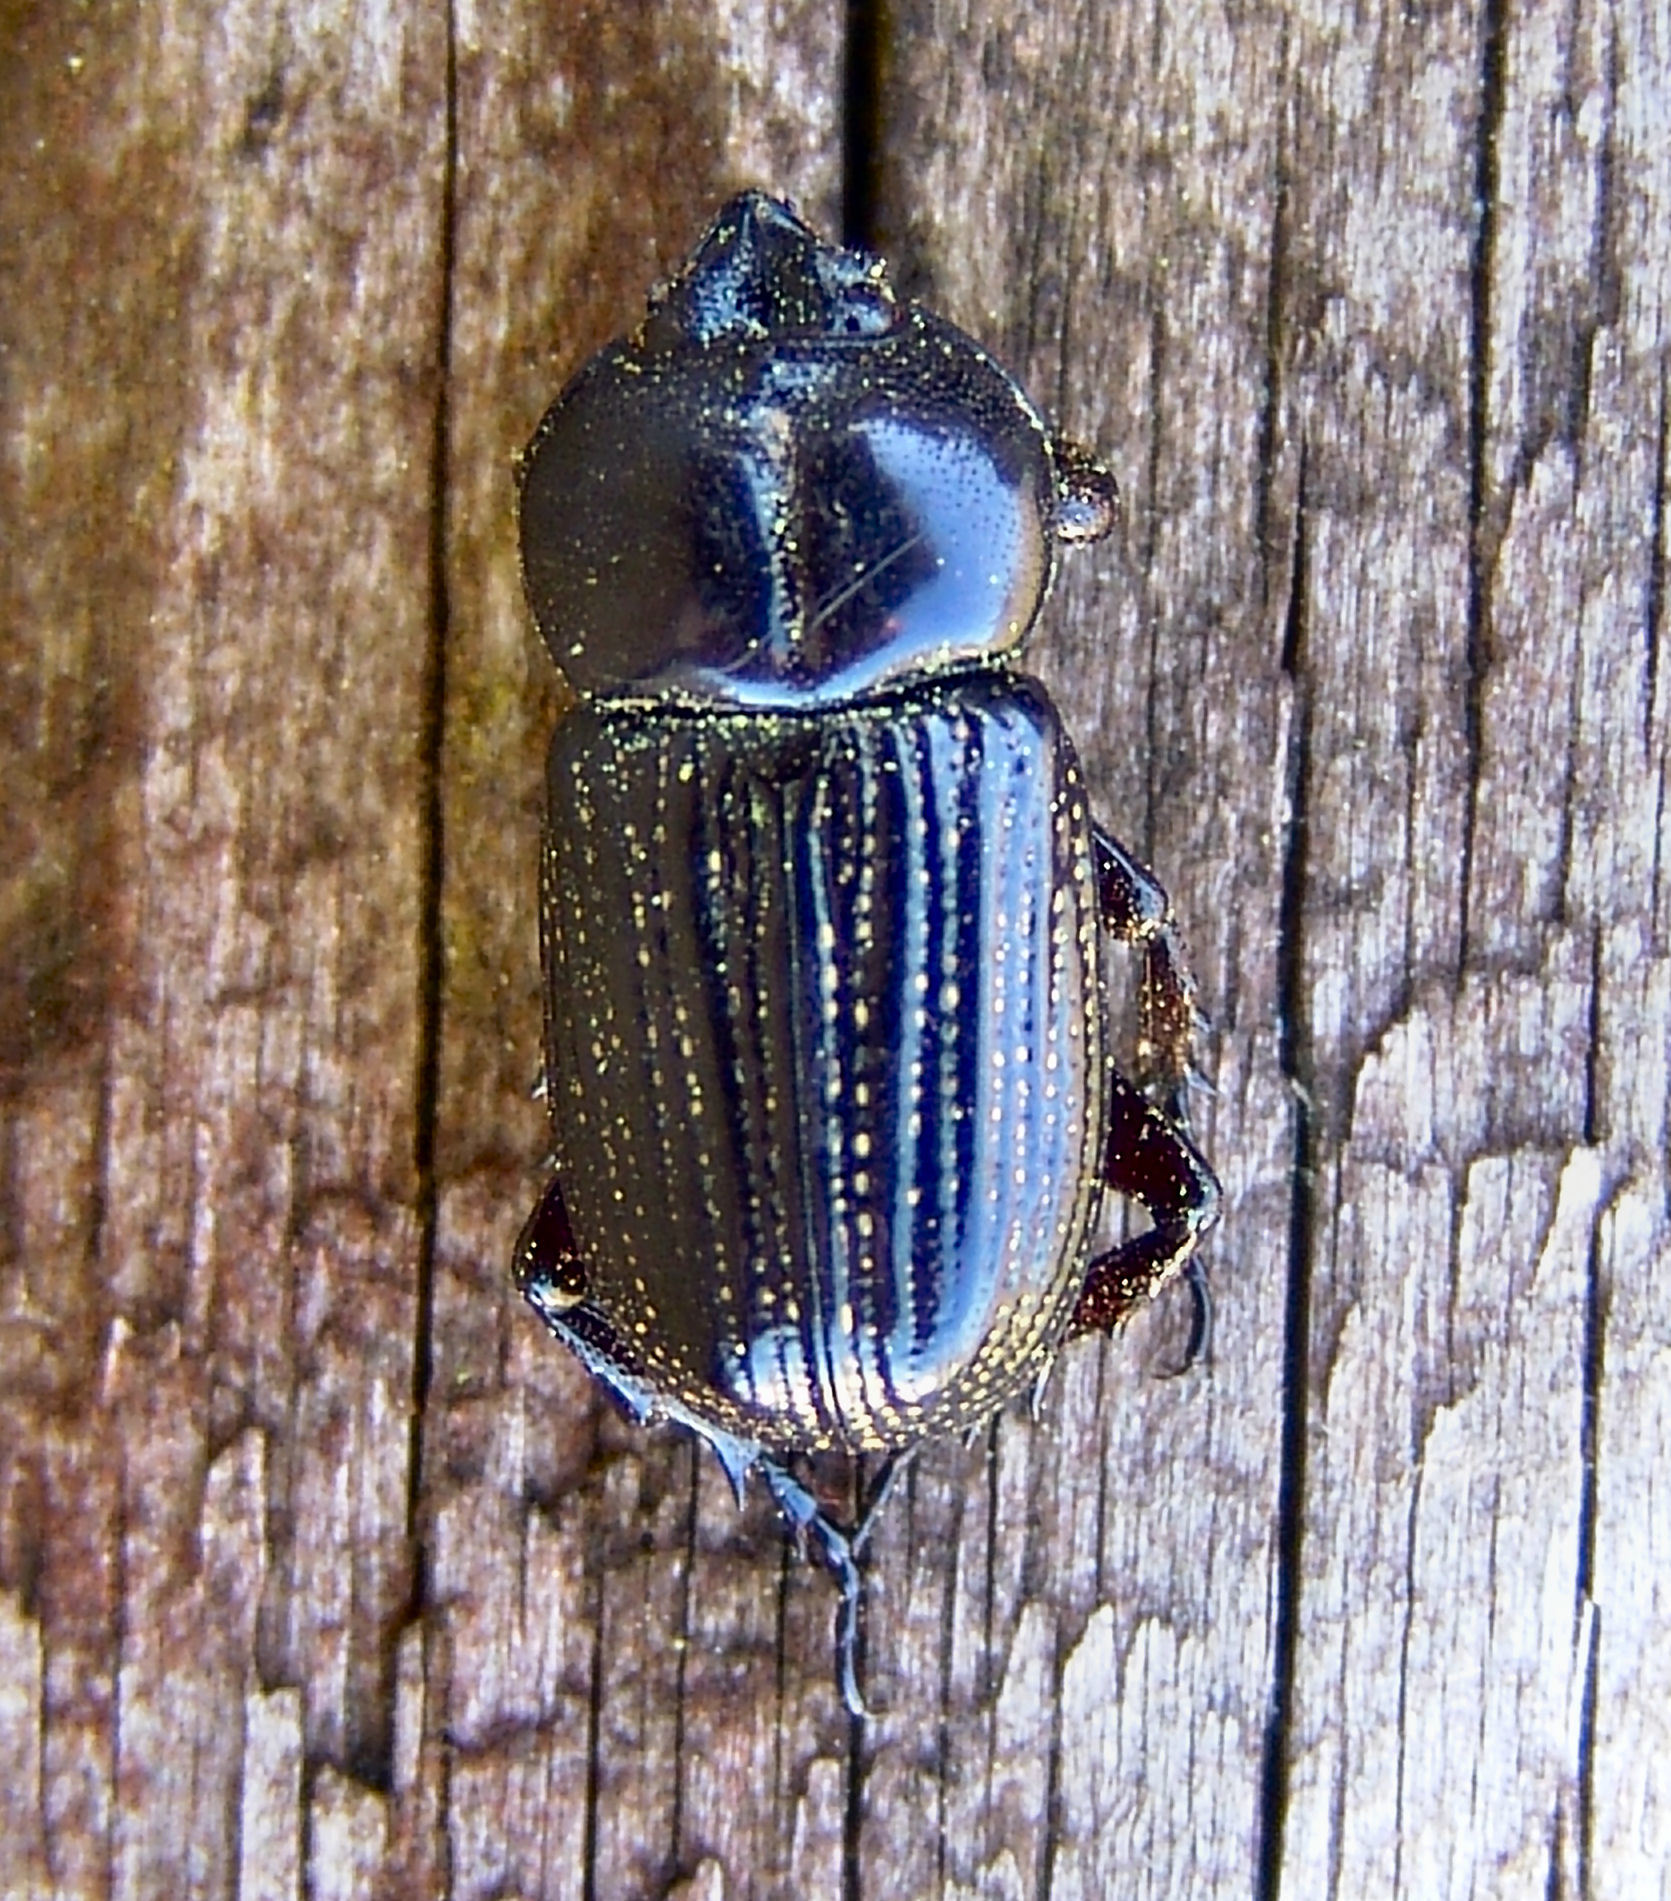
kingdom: Animalia
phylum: Arthropoda
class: Insecta
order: Coleoptera
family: Scarabaeidae
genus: Phileurus
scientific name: Phileurus valgus
